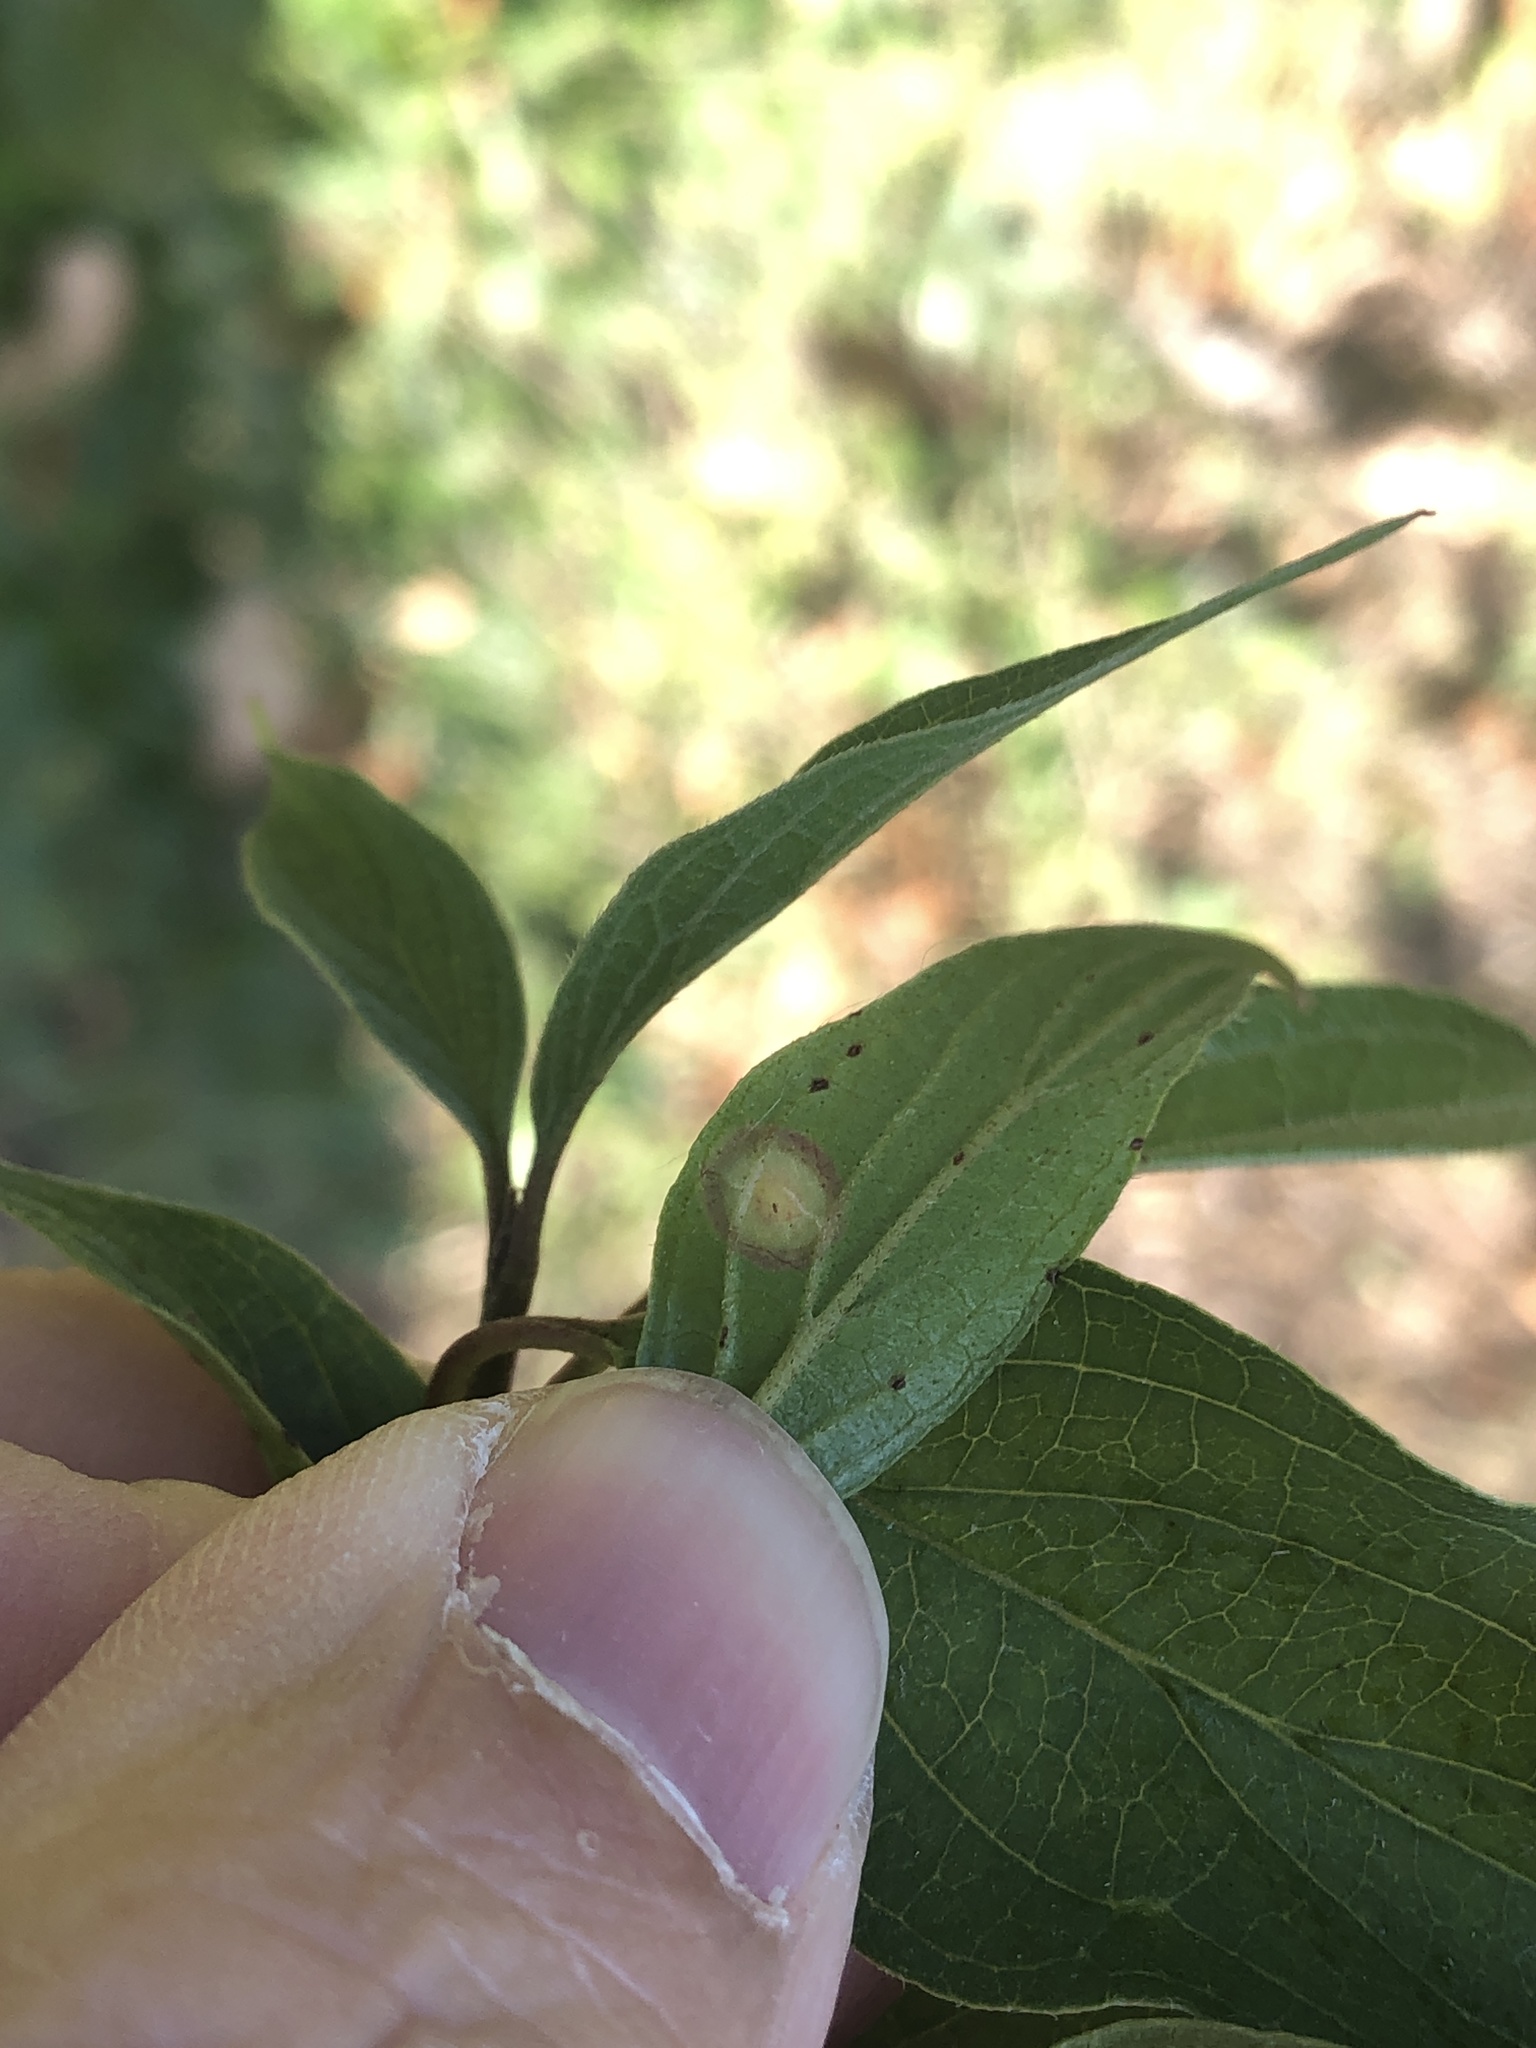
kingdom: Animalia
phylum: Arthropoda
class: Insecta
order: Diptera
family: Cecidomyiidae
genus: Parallelodiplosis
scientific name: Parallelodiplosis subtruncata
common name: Dogwood eyespot gall midge
